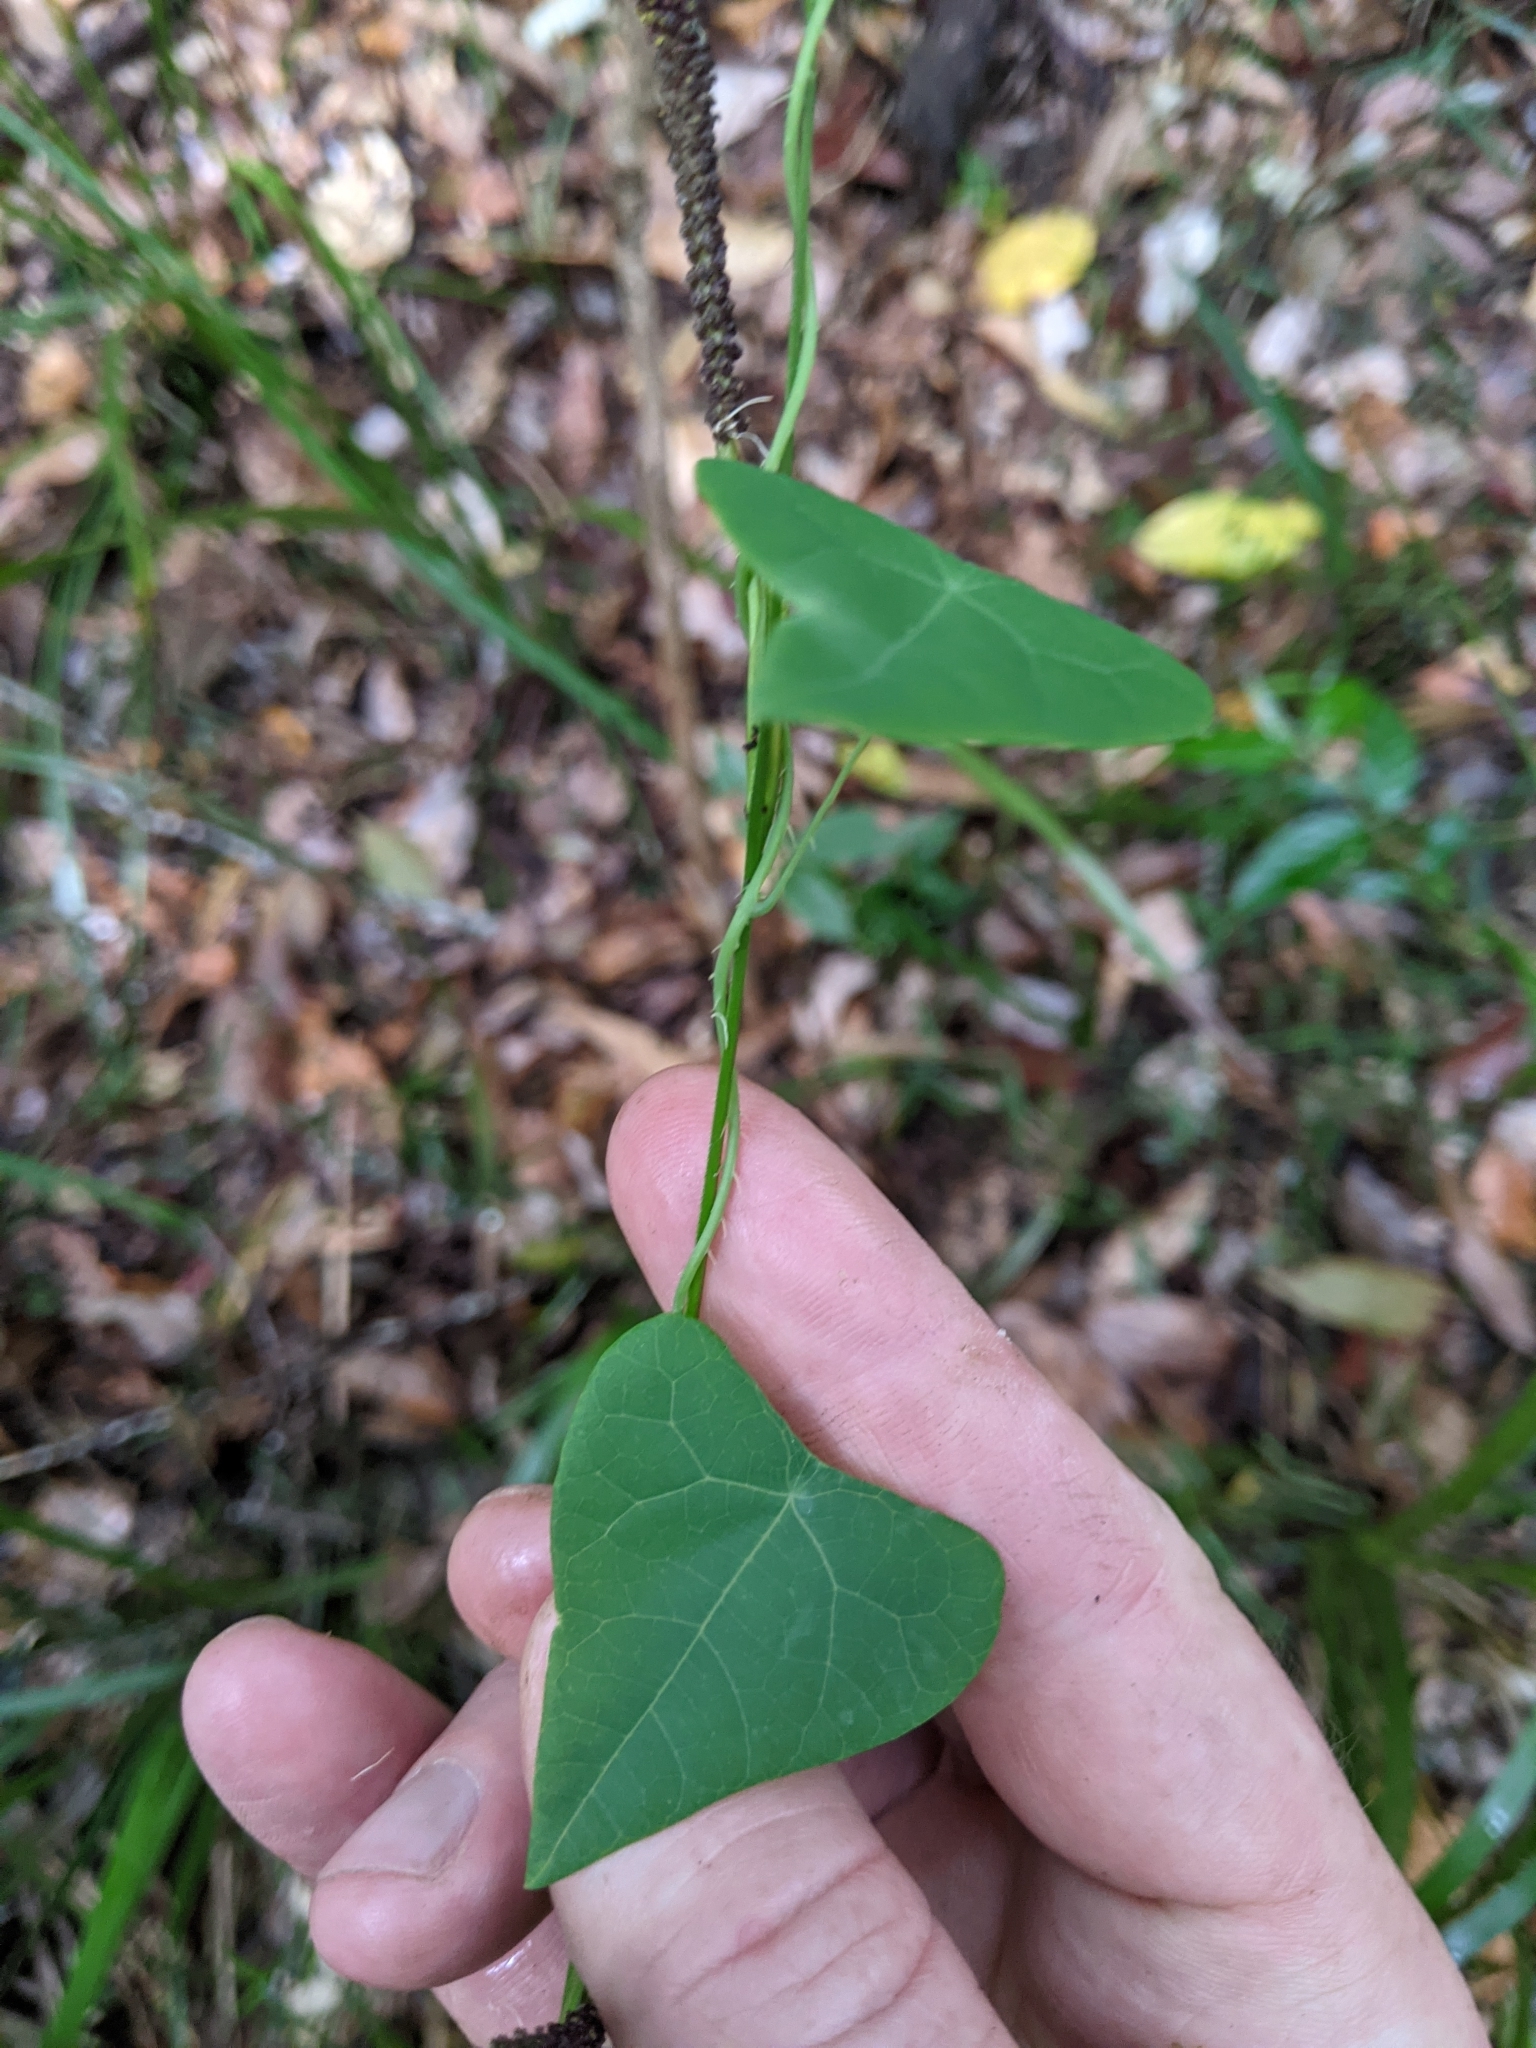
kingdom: Plantae
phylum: Tracheophyta
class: Magnoliopsida
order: Ranunculales
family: Menispermaceae
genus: Stephania
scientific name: Stephania aculeata
